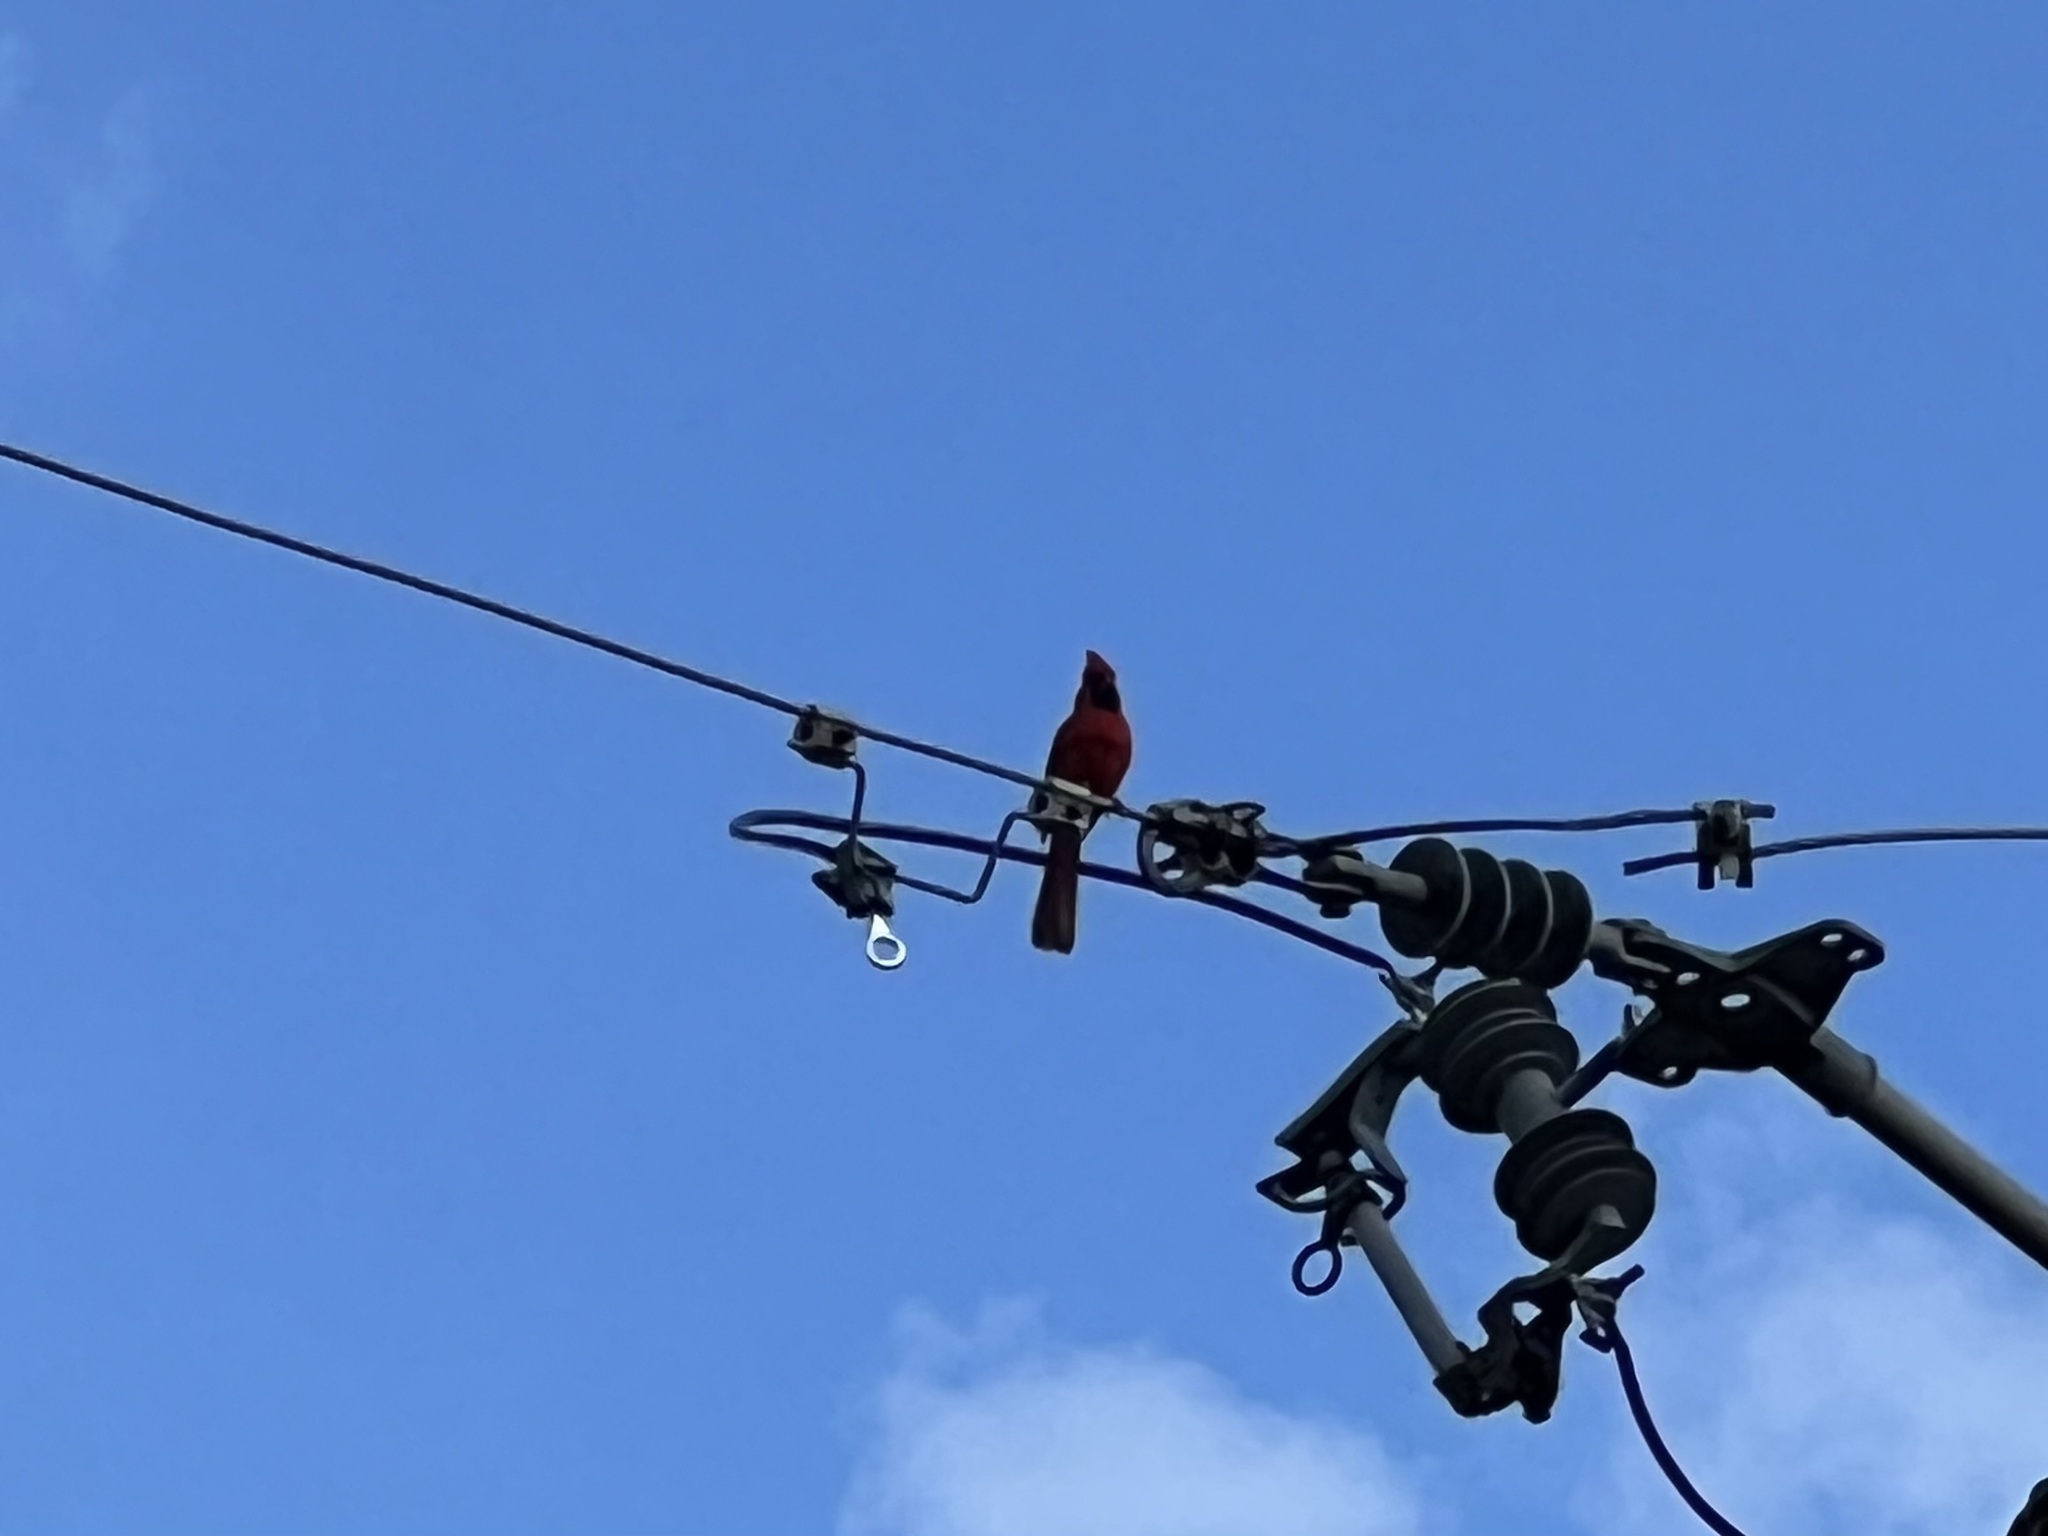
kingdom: Animalia
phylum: Chordata
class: Aves
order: Passeriformes
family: Cardinalidae
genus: Cardinalis
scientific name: Cardinalis cardinalis
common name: Northern cardinal
